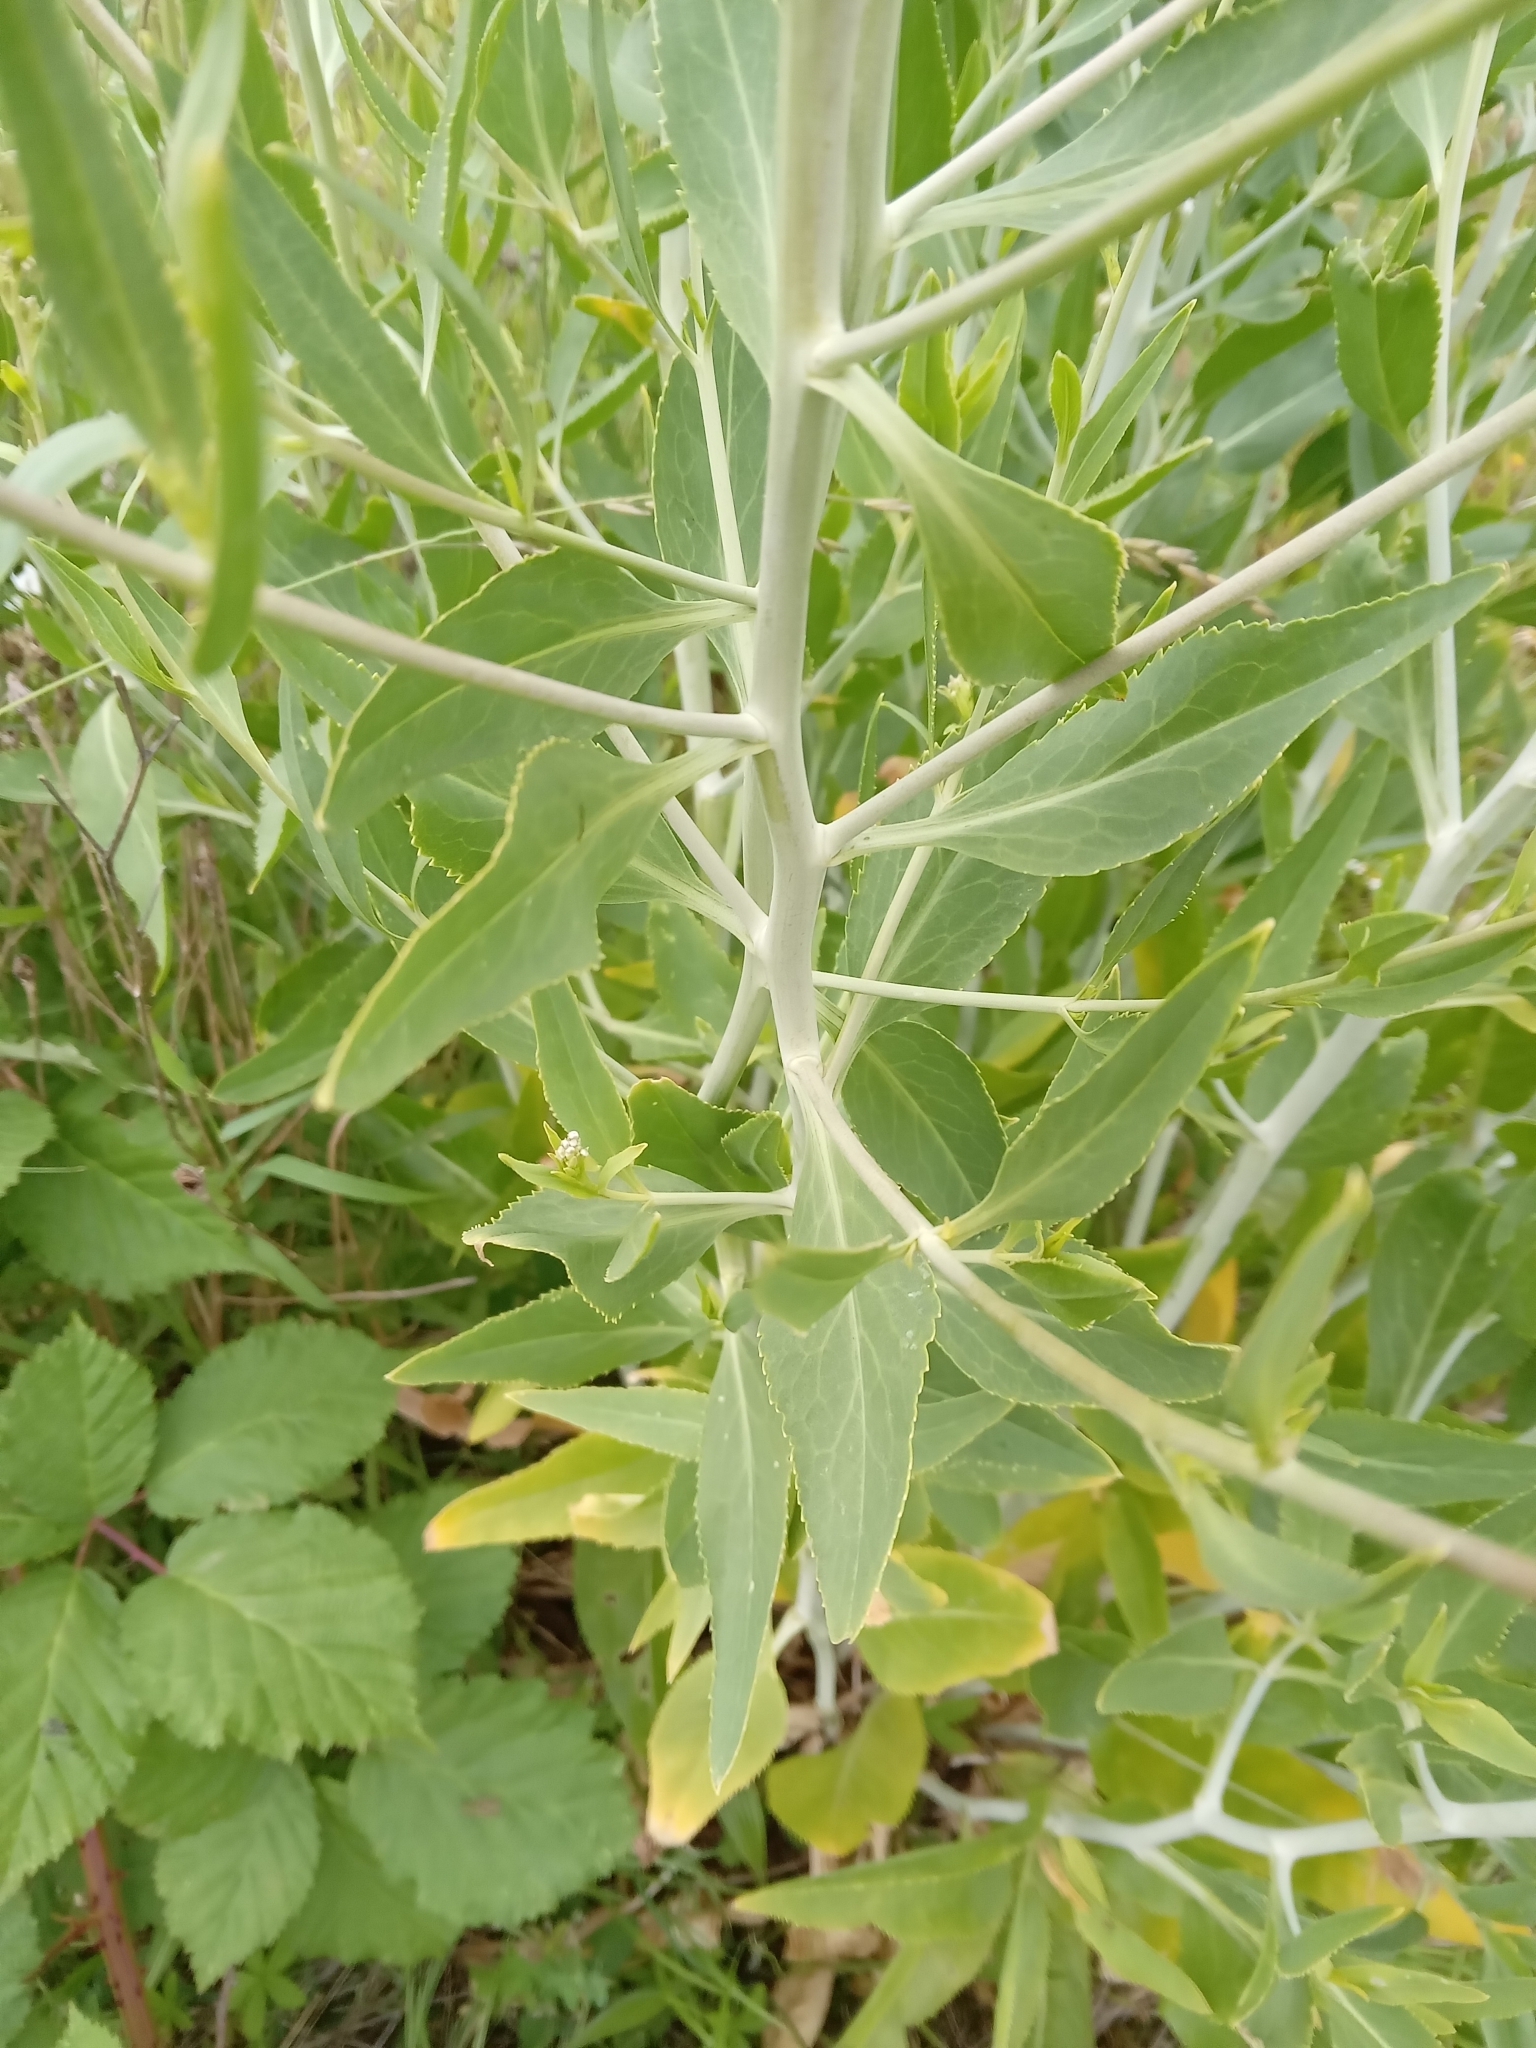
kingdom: Plantae
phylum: Tracheophyta
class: Magnoliopsida
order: Brassicales
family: Brassicaceae
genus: Lepidium
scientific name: Lepidium latifolium
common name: Dittander
